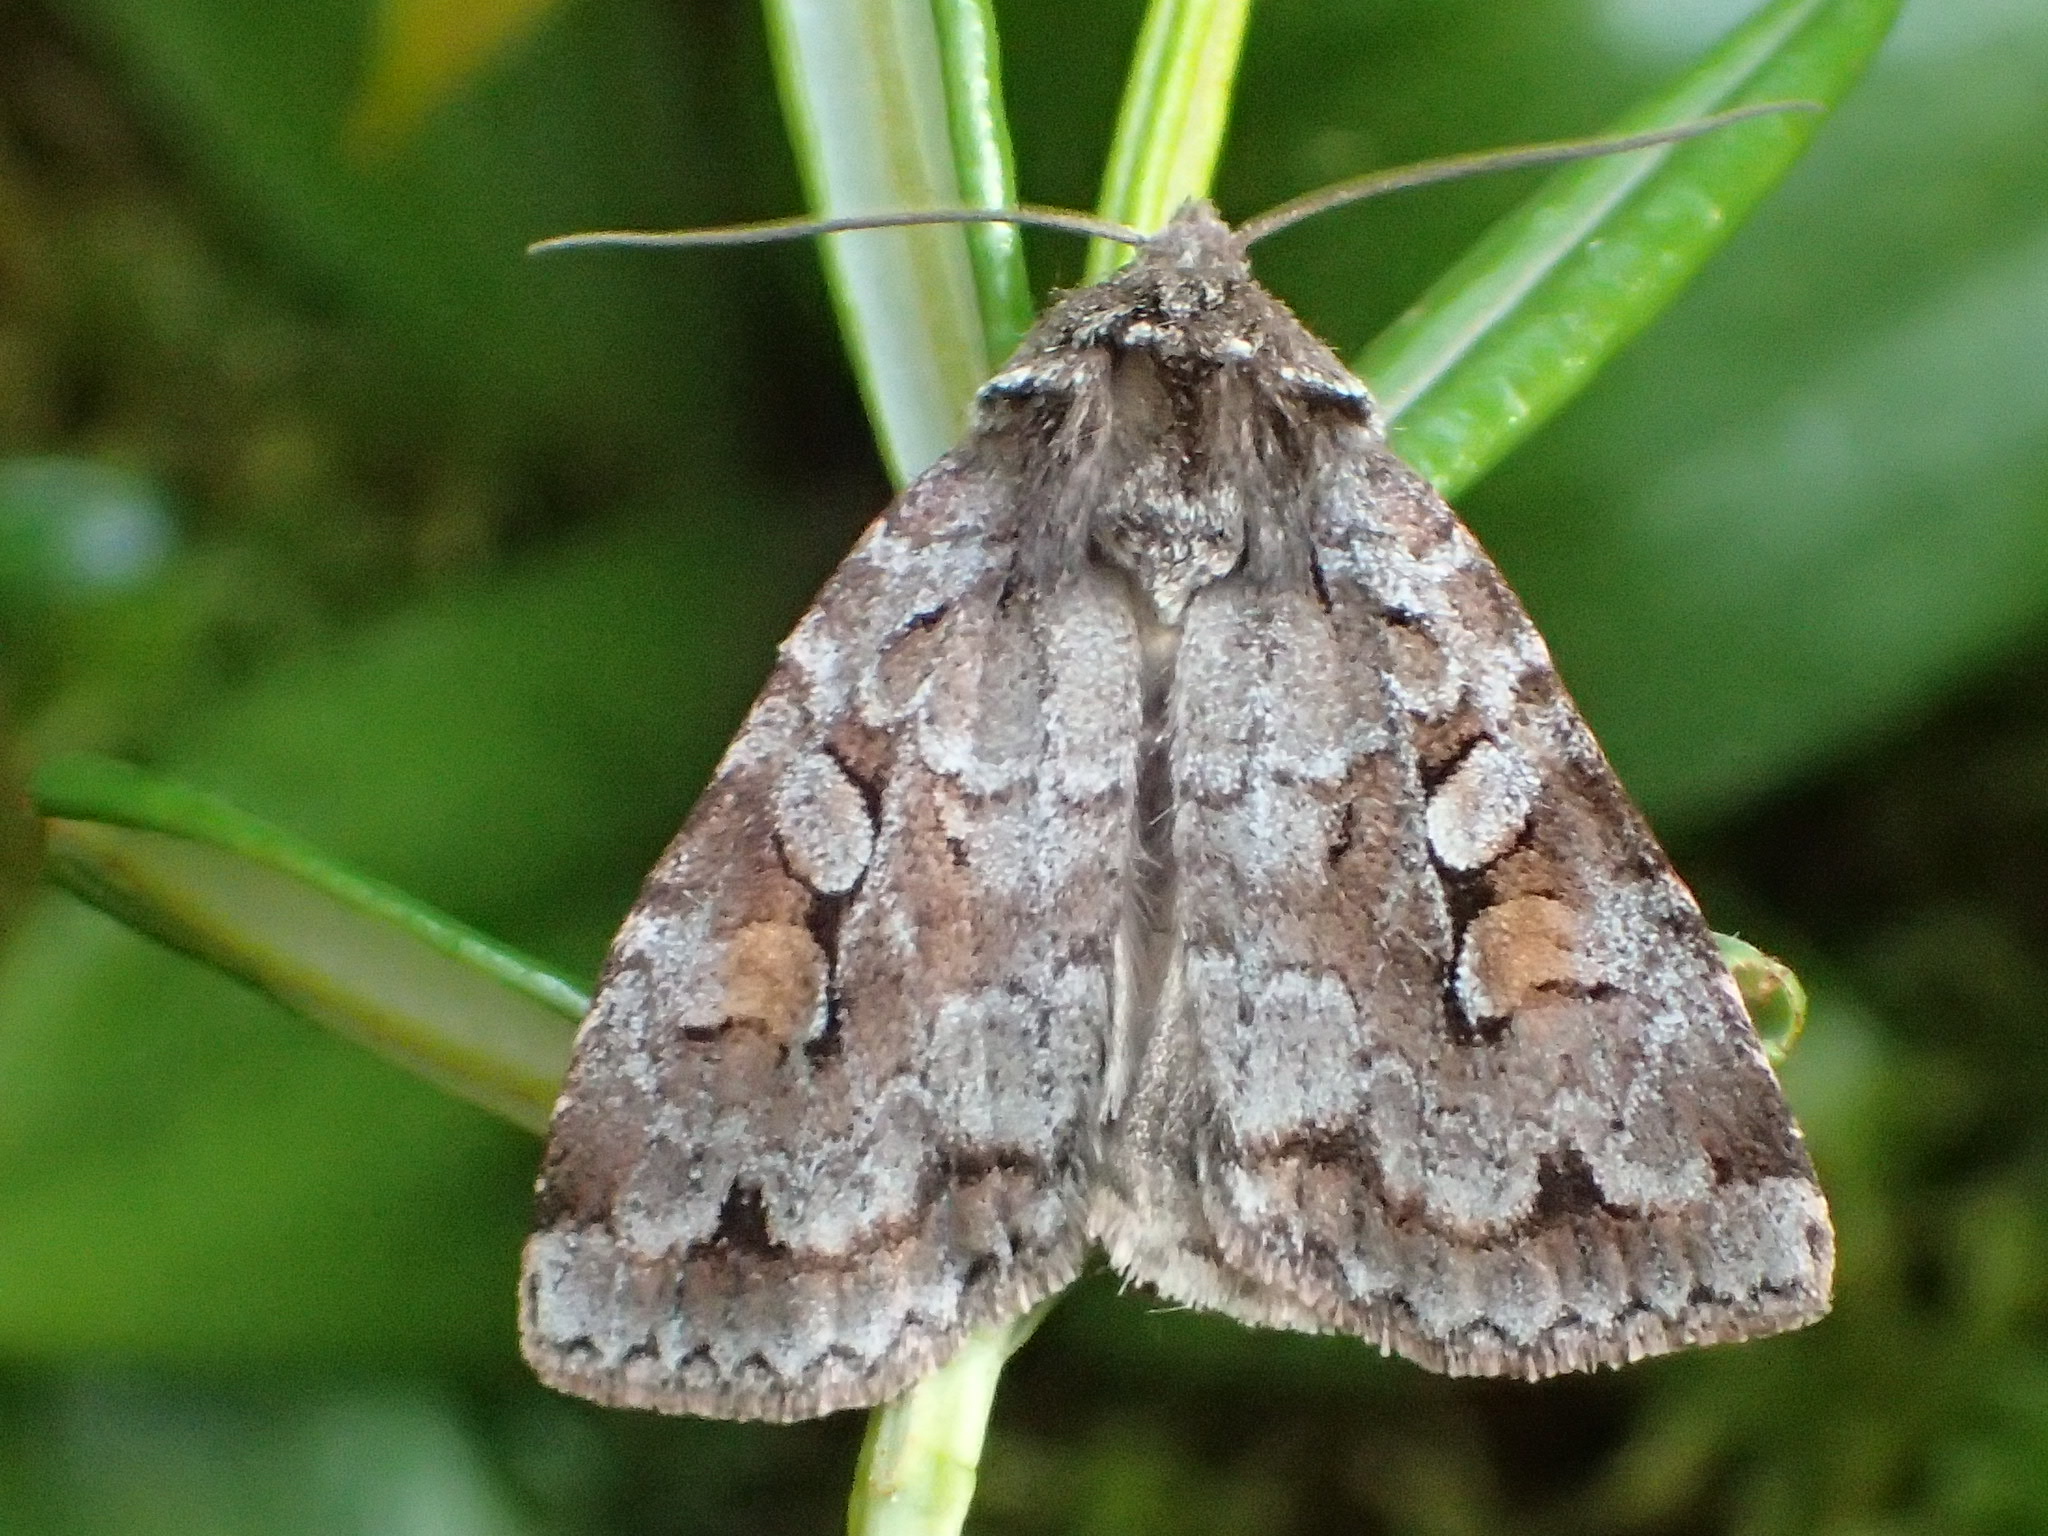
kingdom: Animalia
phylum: Arthropoda
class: Insecta
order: Lepidoptera
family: Noctuidae
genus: Xestia
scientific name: Xestia imperita
